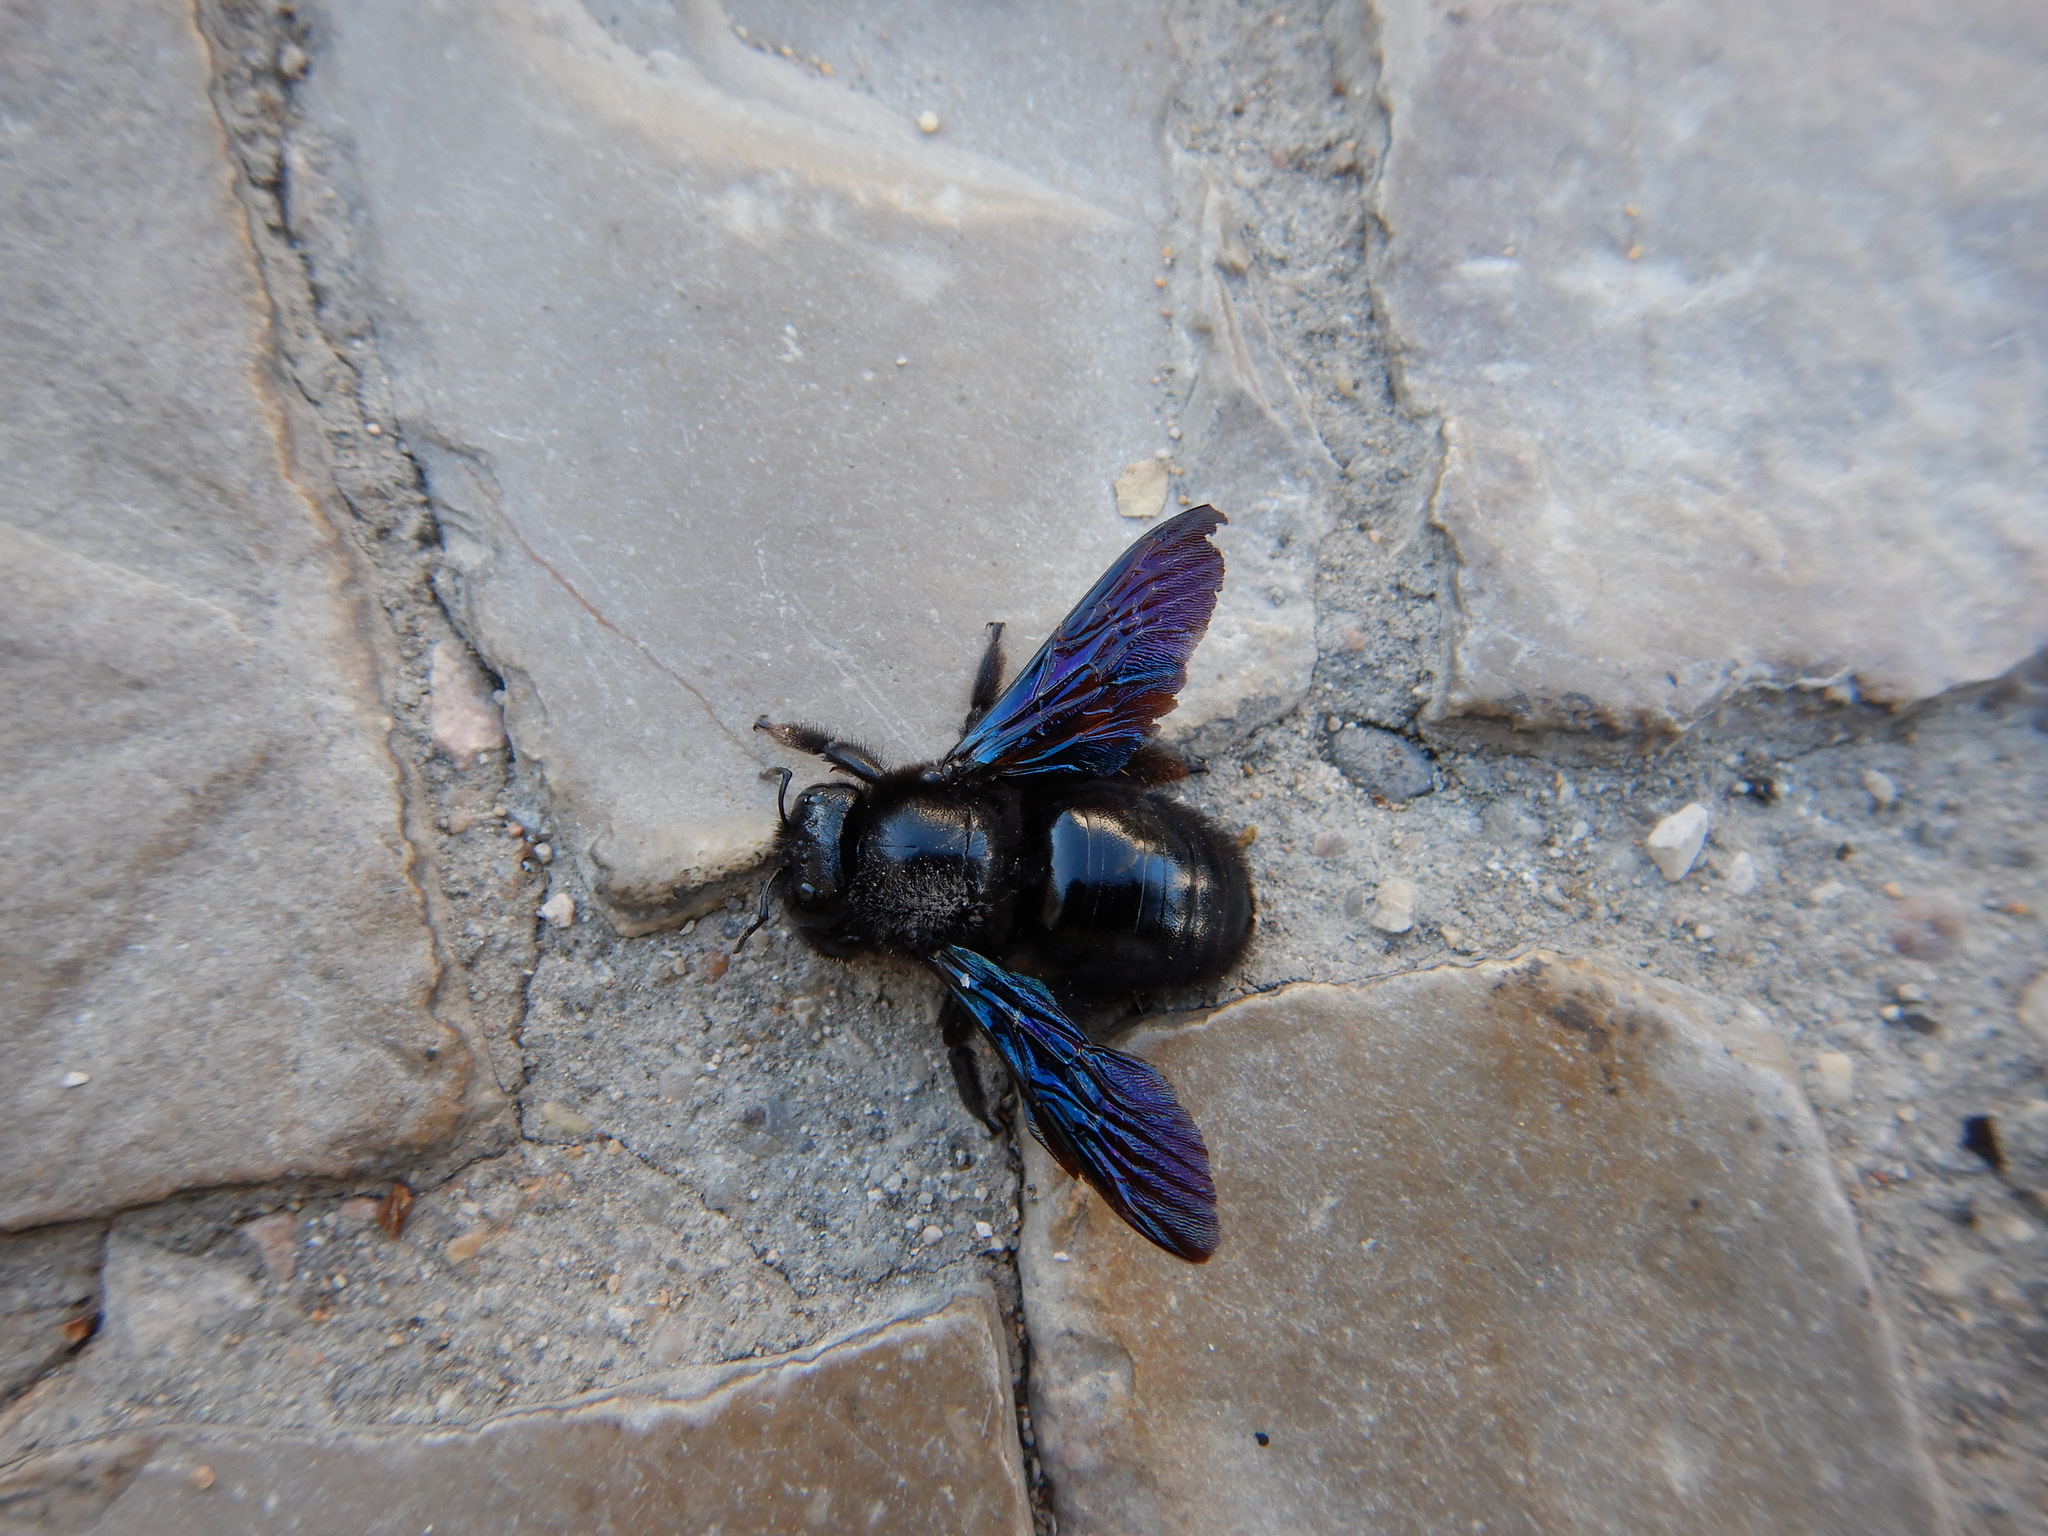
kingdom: Animalia
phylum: Arthropoda
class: Insecta
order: Hymenoptera
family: Apidae
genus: Xylocopa
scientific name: Xylocopa violacea
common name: Violet carpenter bee
